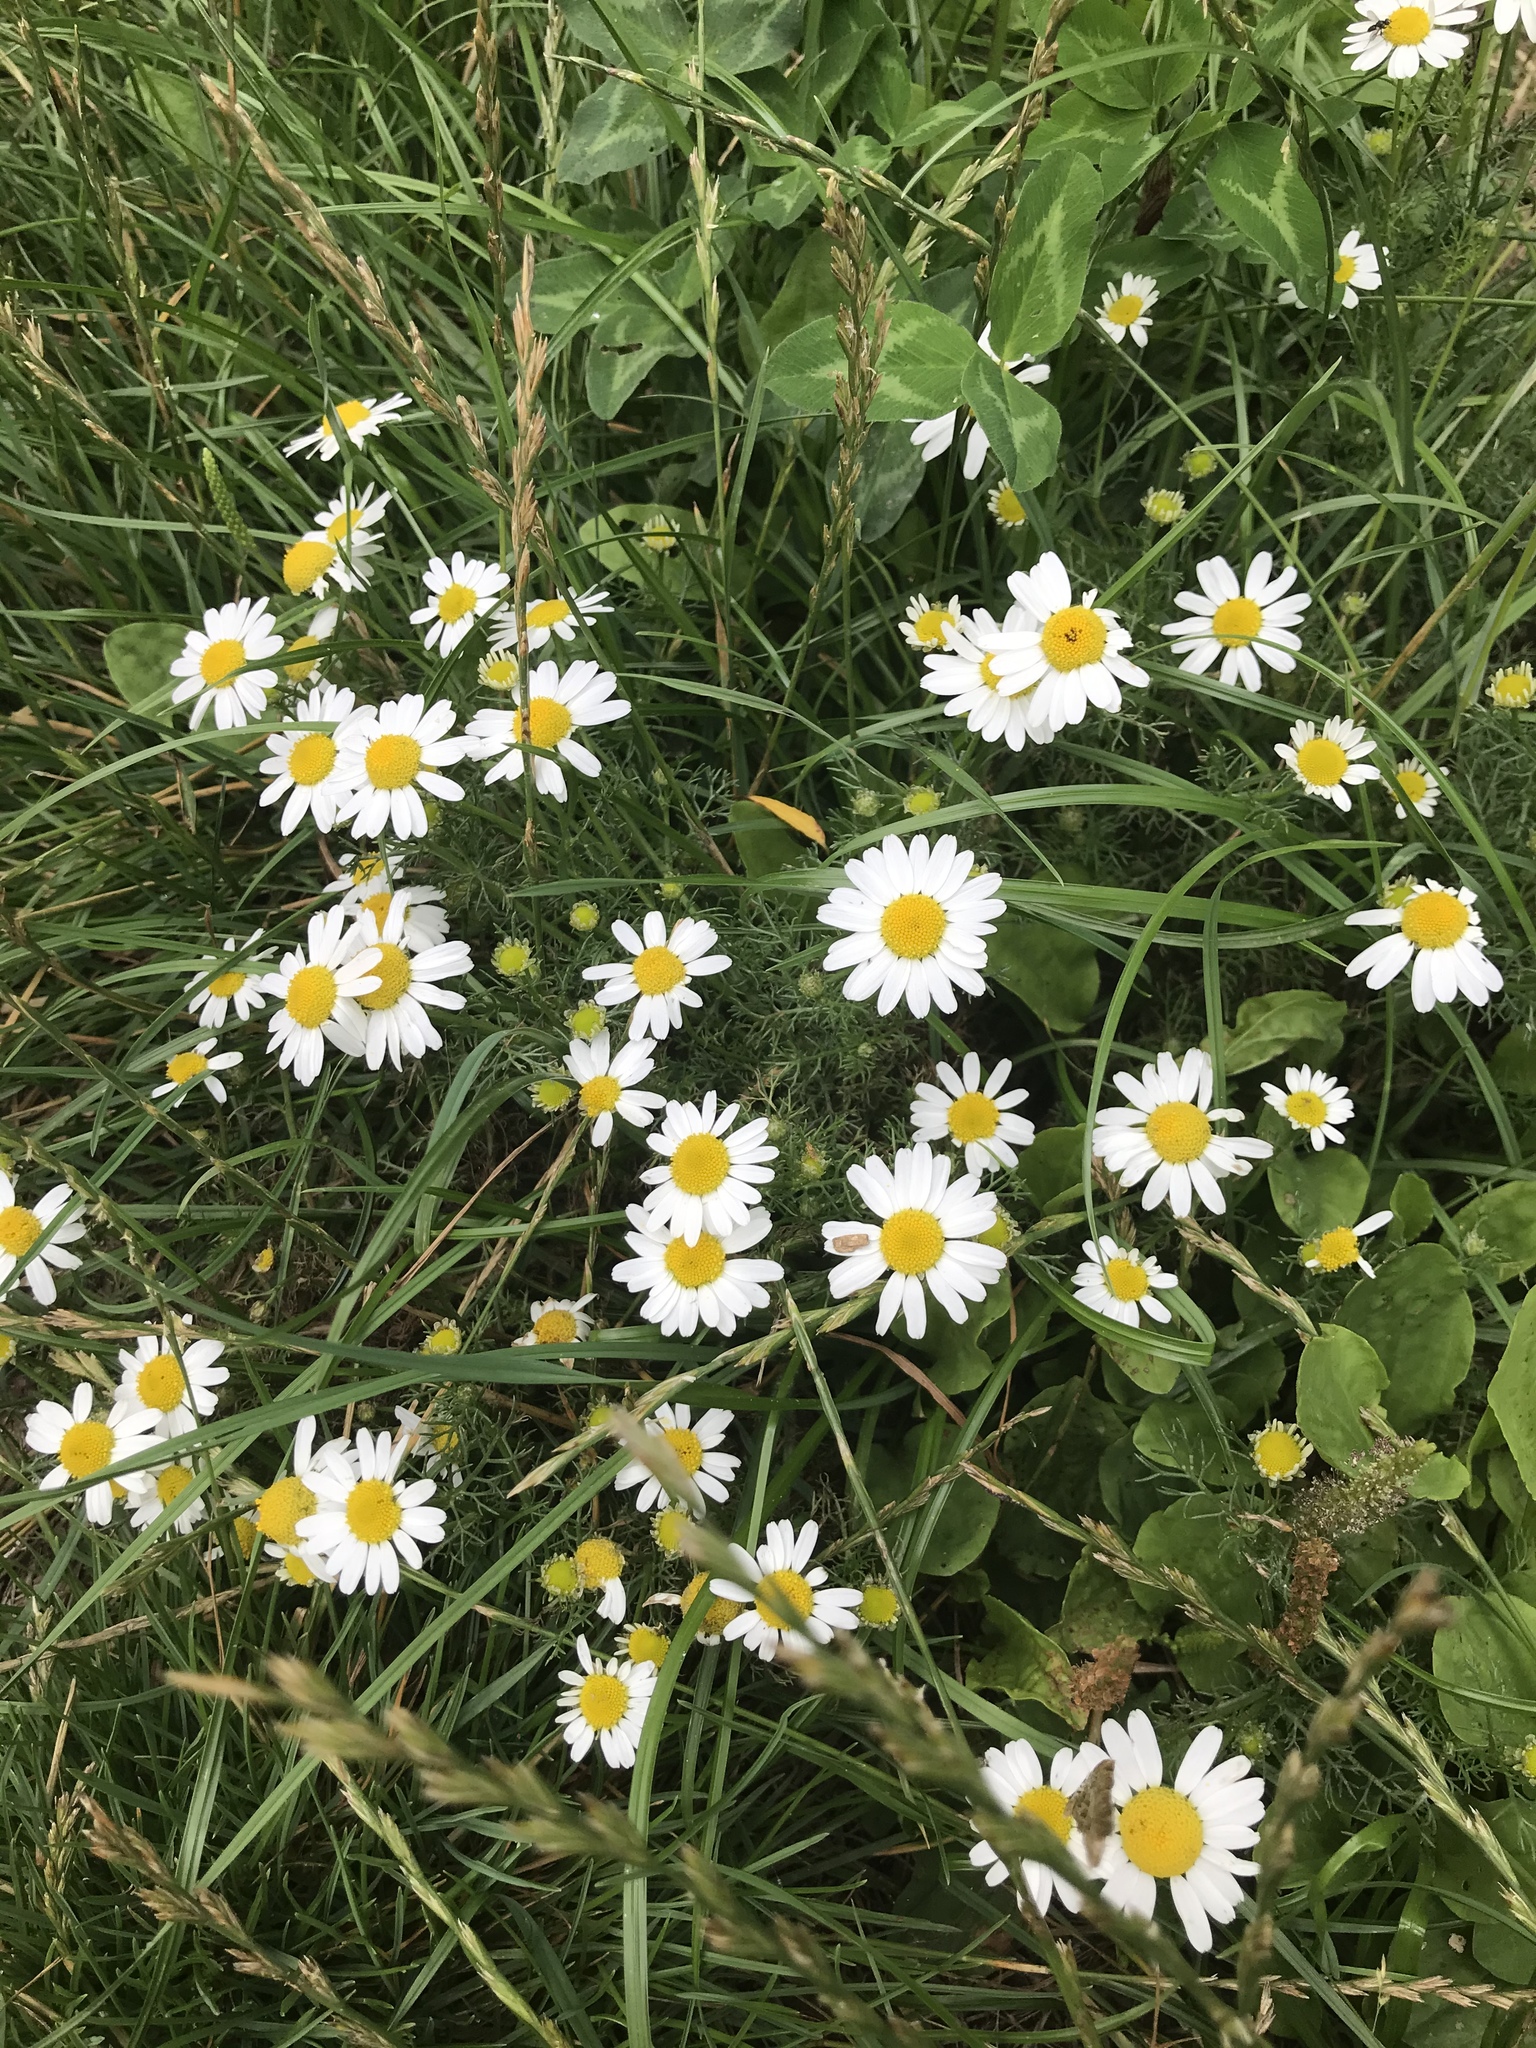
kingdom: Plantae
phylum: Tracheophyta
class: Magnoliopsida
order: Asterales
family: Asteraceae
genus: Tripleurospermum
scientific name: Tripleurospermum inodorum
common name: Scentless mayweed
